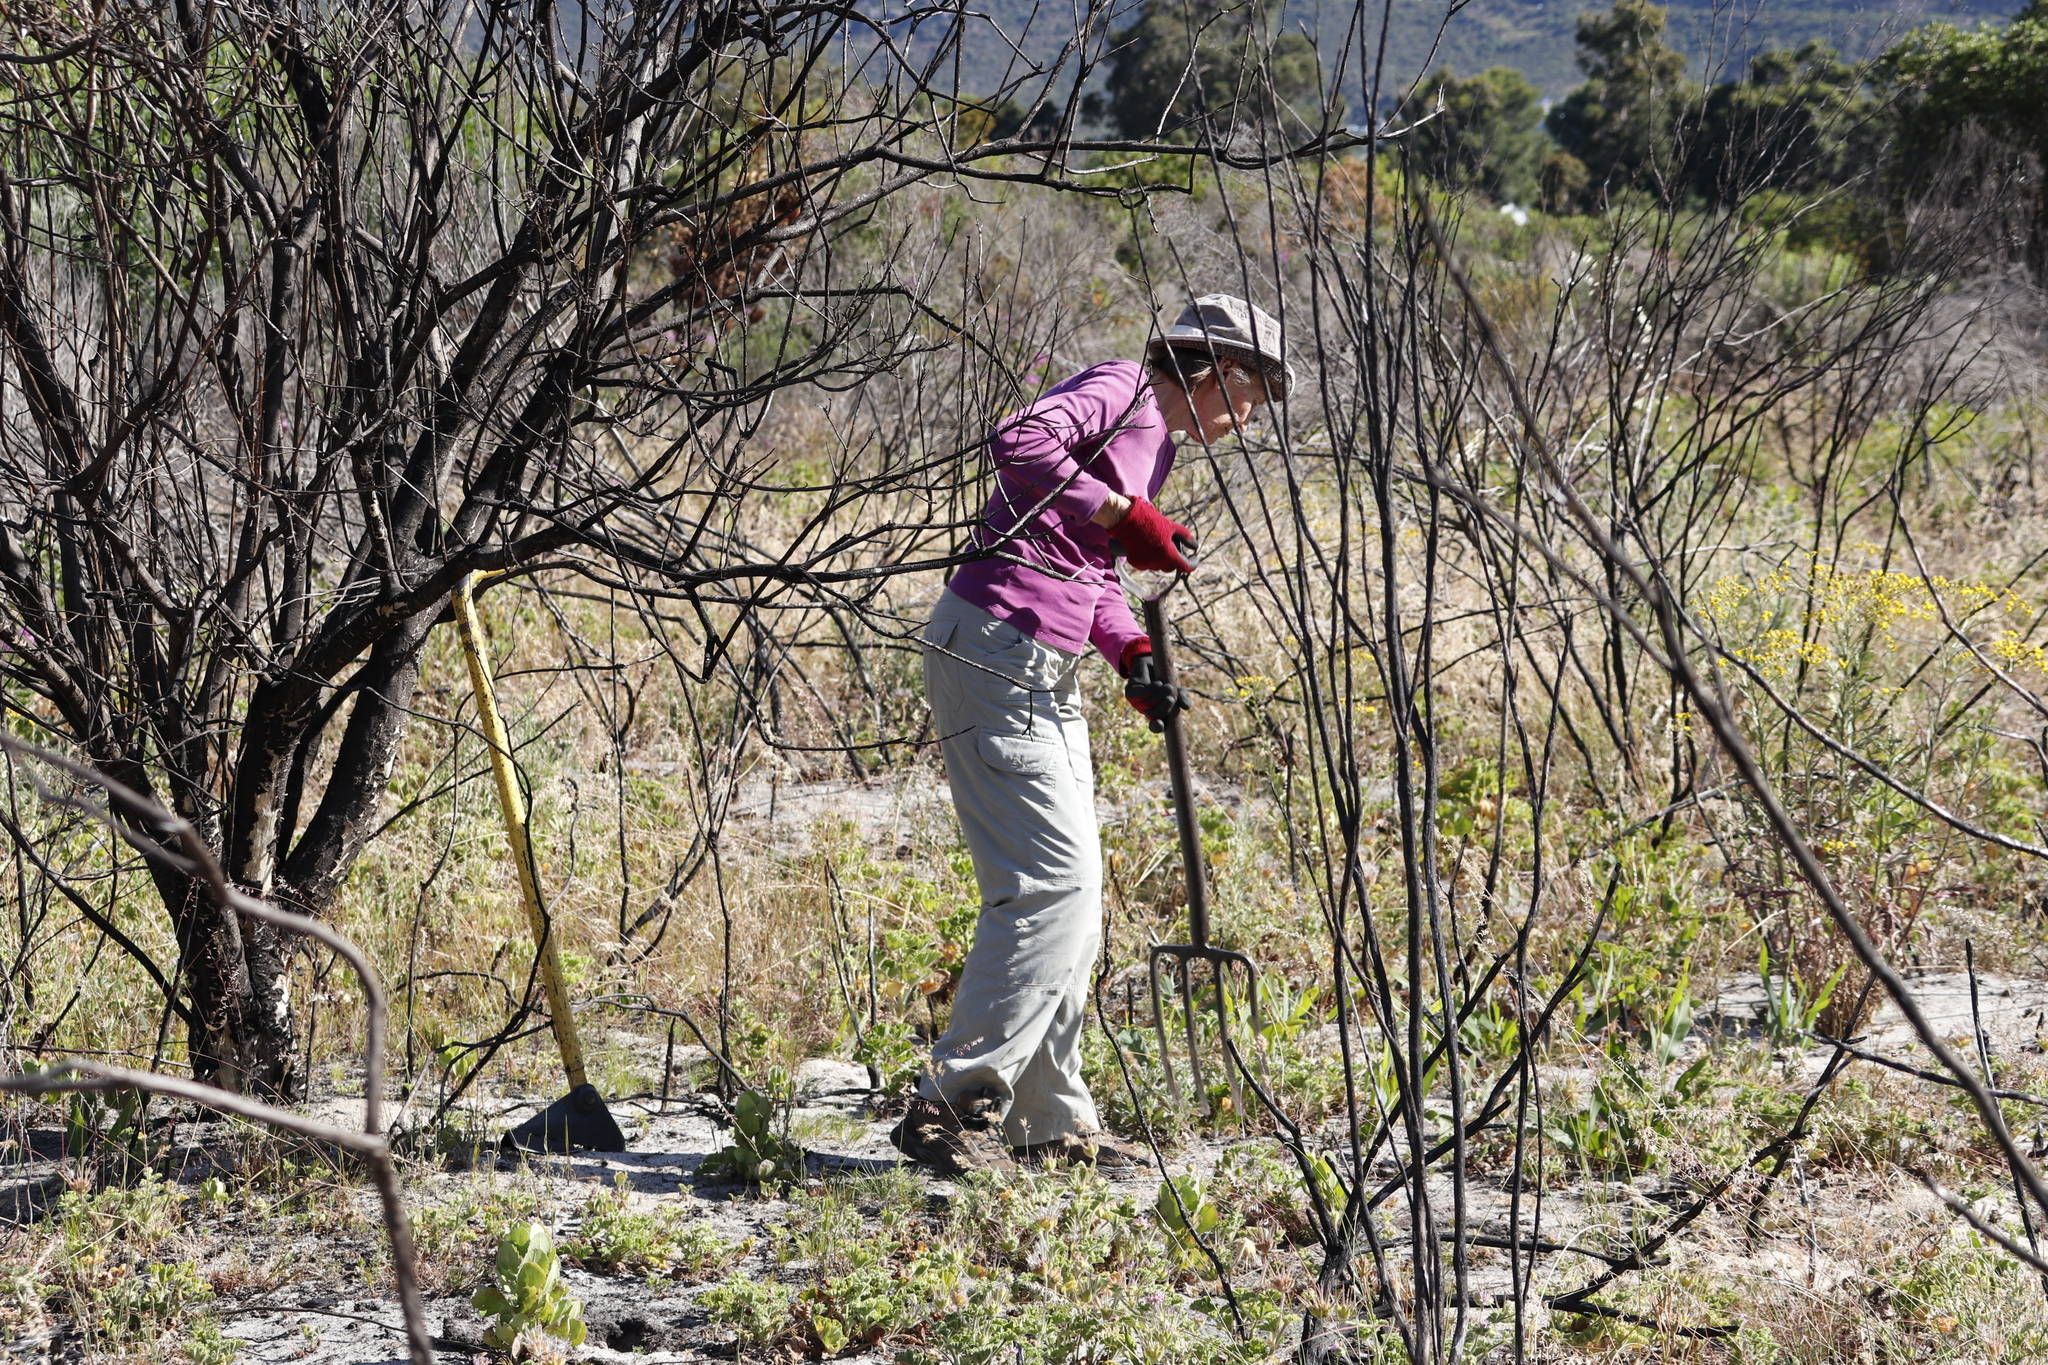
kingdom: Plantae
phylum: Tracheophyta
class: Magnoliopsida
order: Fabales
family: Fabaceae
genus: Acacia
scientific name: Acacia saligna
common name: Orange wattle
